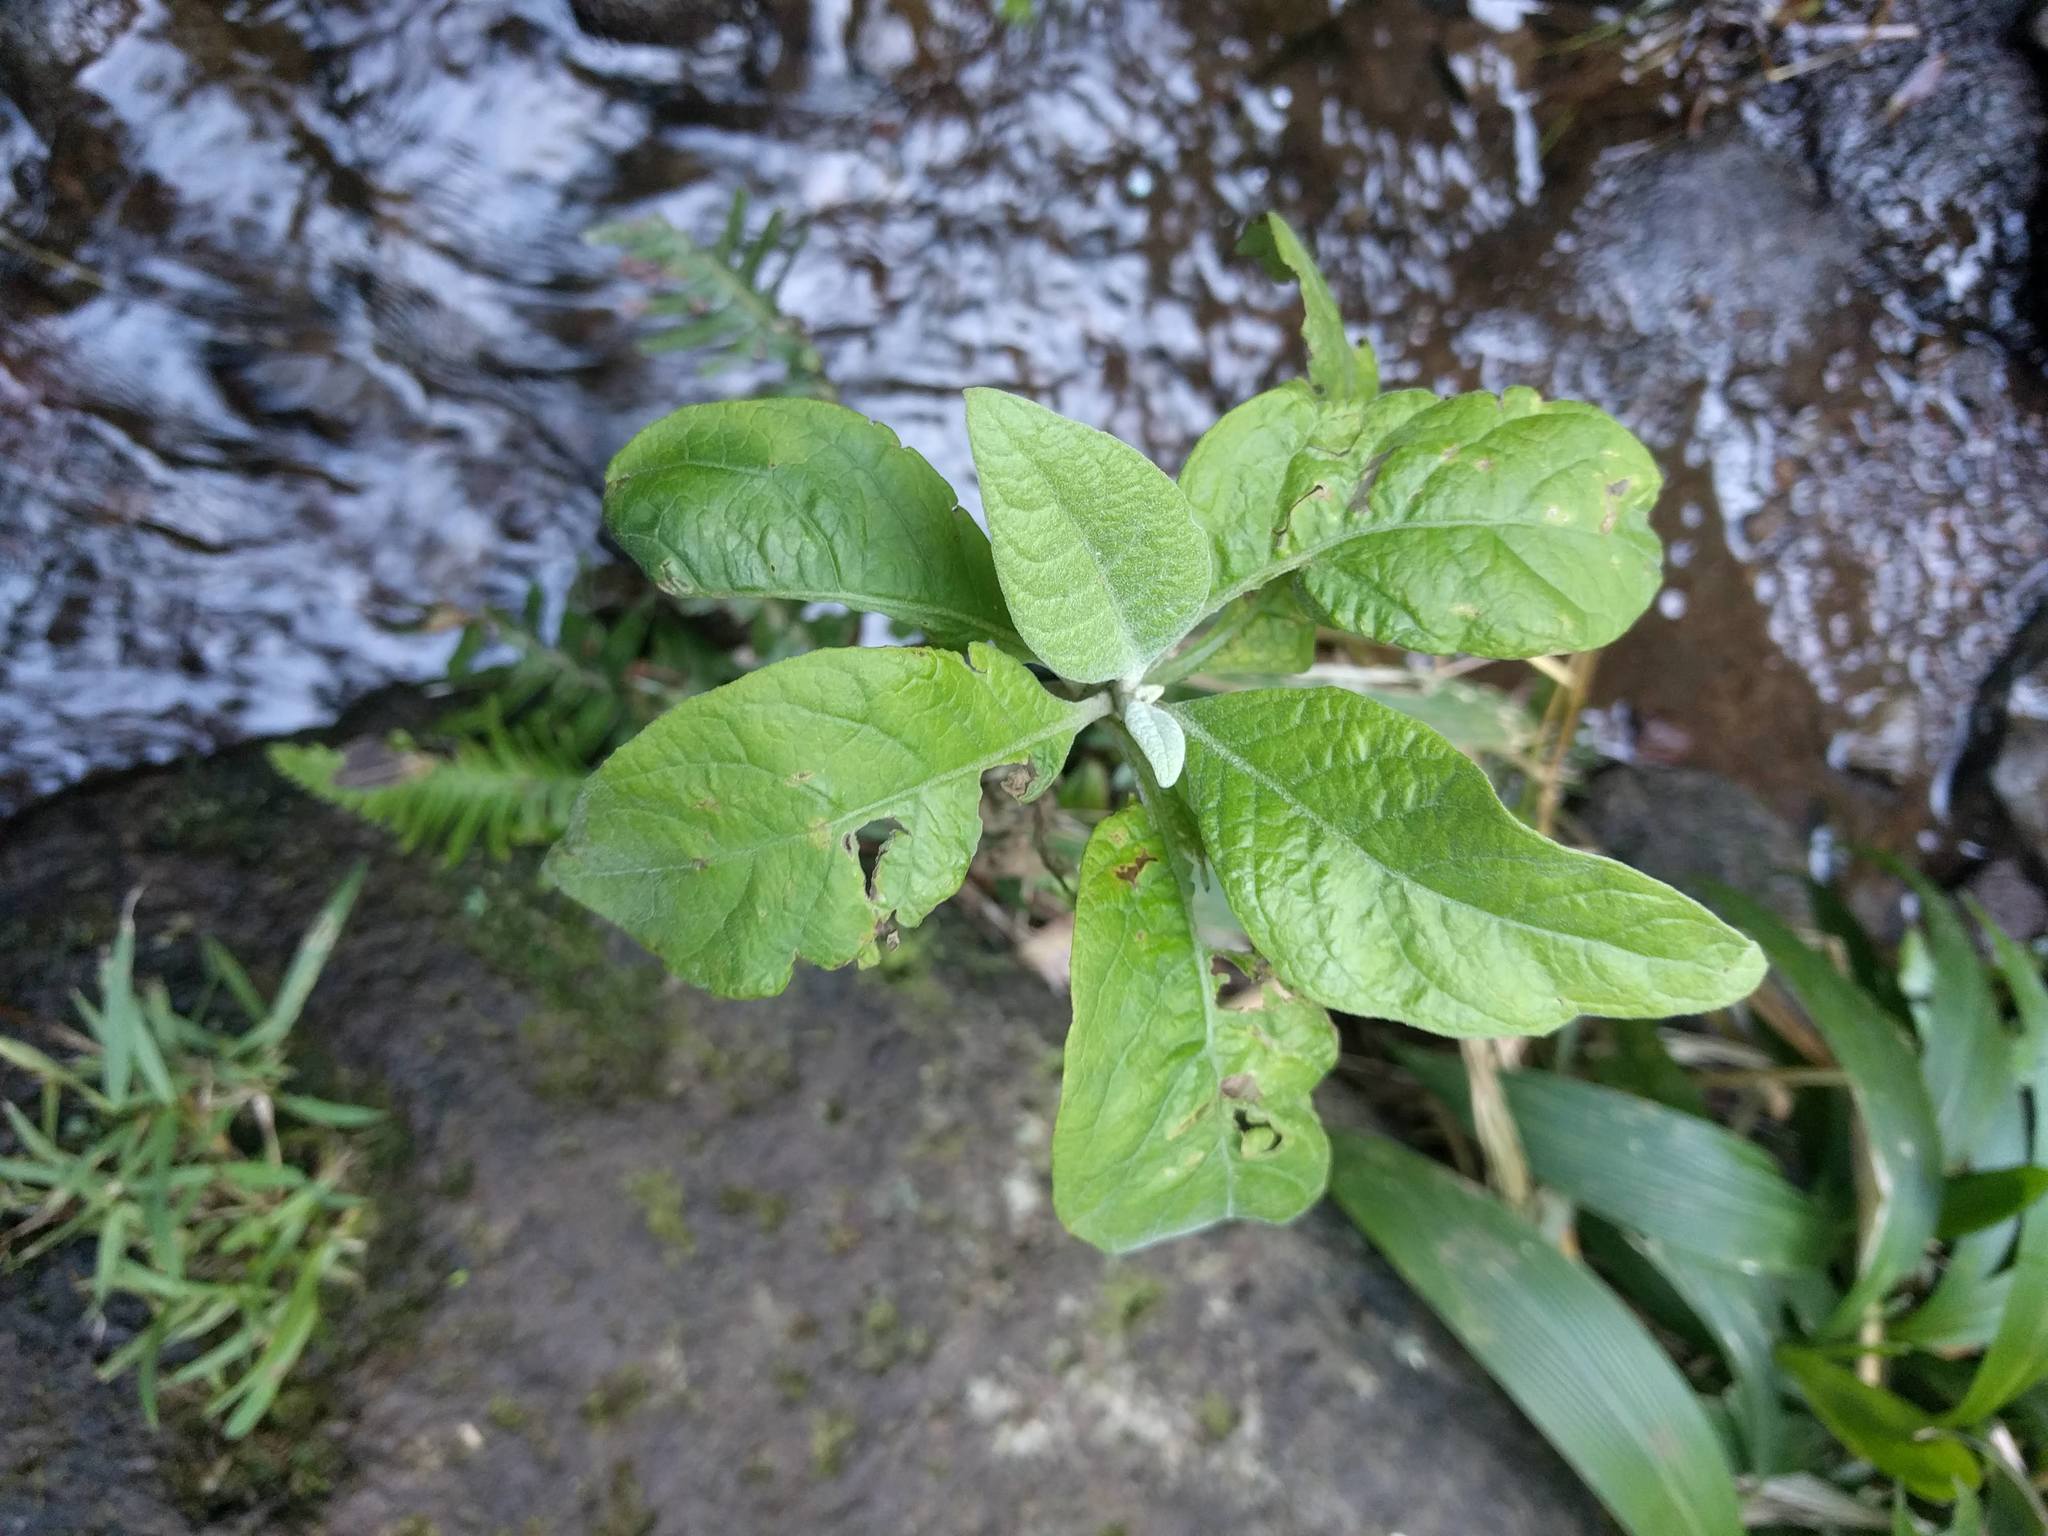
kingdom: Plantae
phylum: Tracheophyta
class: Magnoliopsida
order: Asterales
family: Asteraceae
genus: Pluchea
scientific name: Pluchea carolinensis
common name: Marsh fleabane
